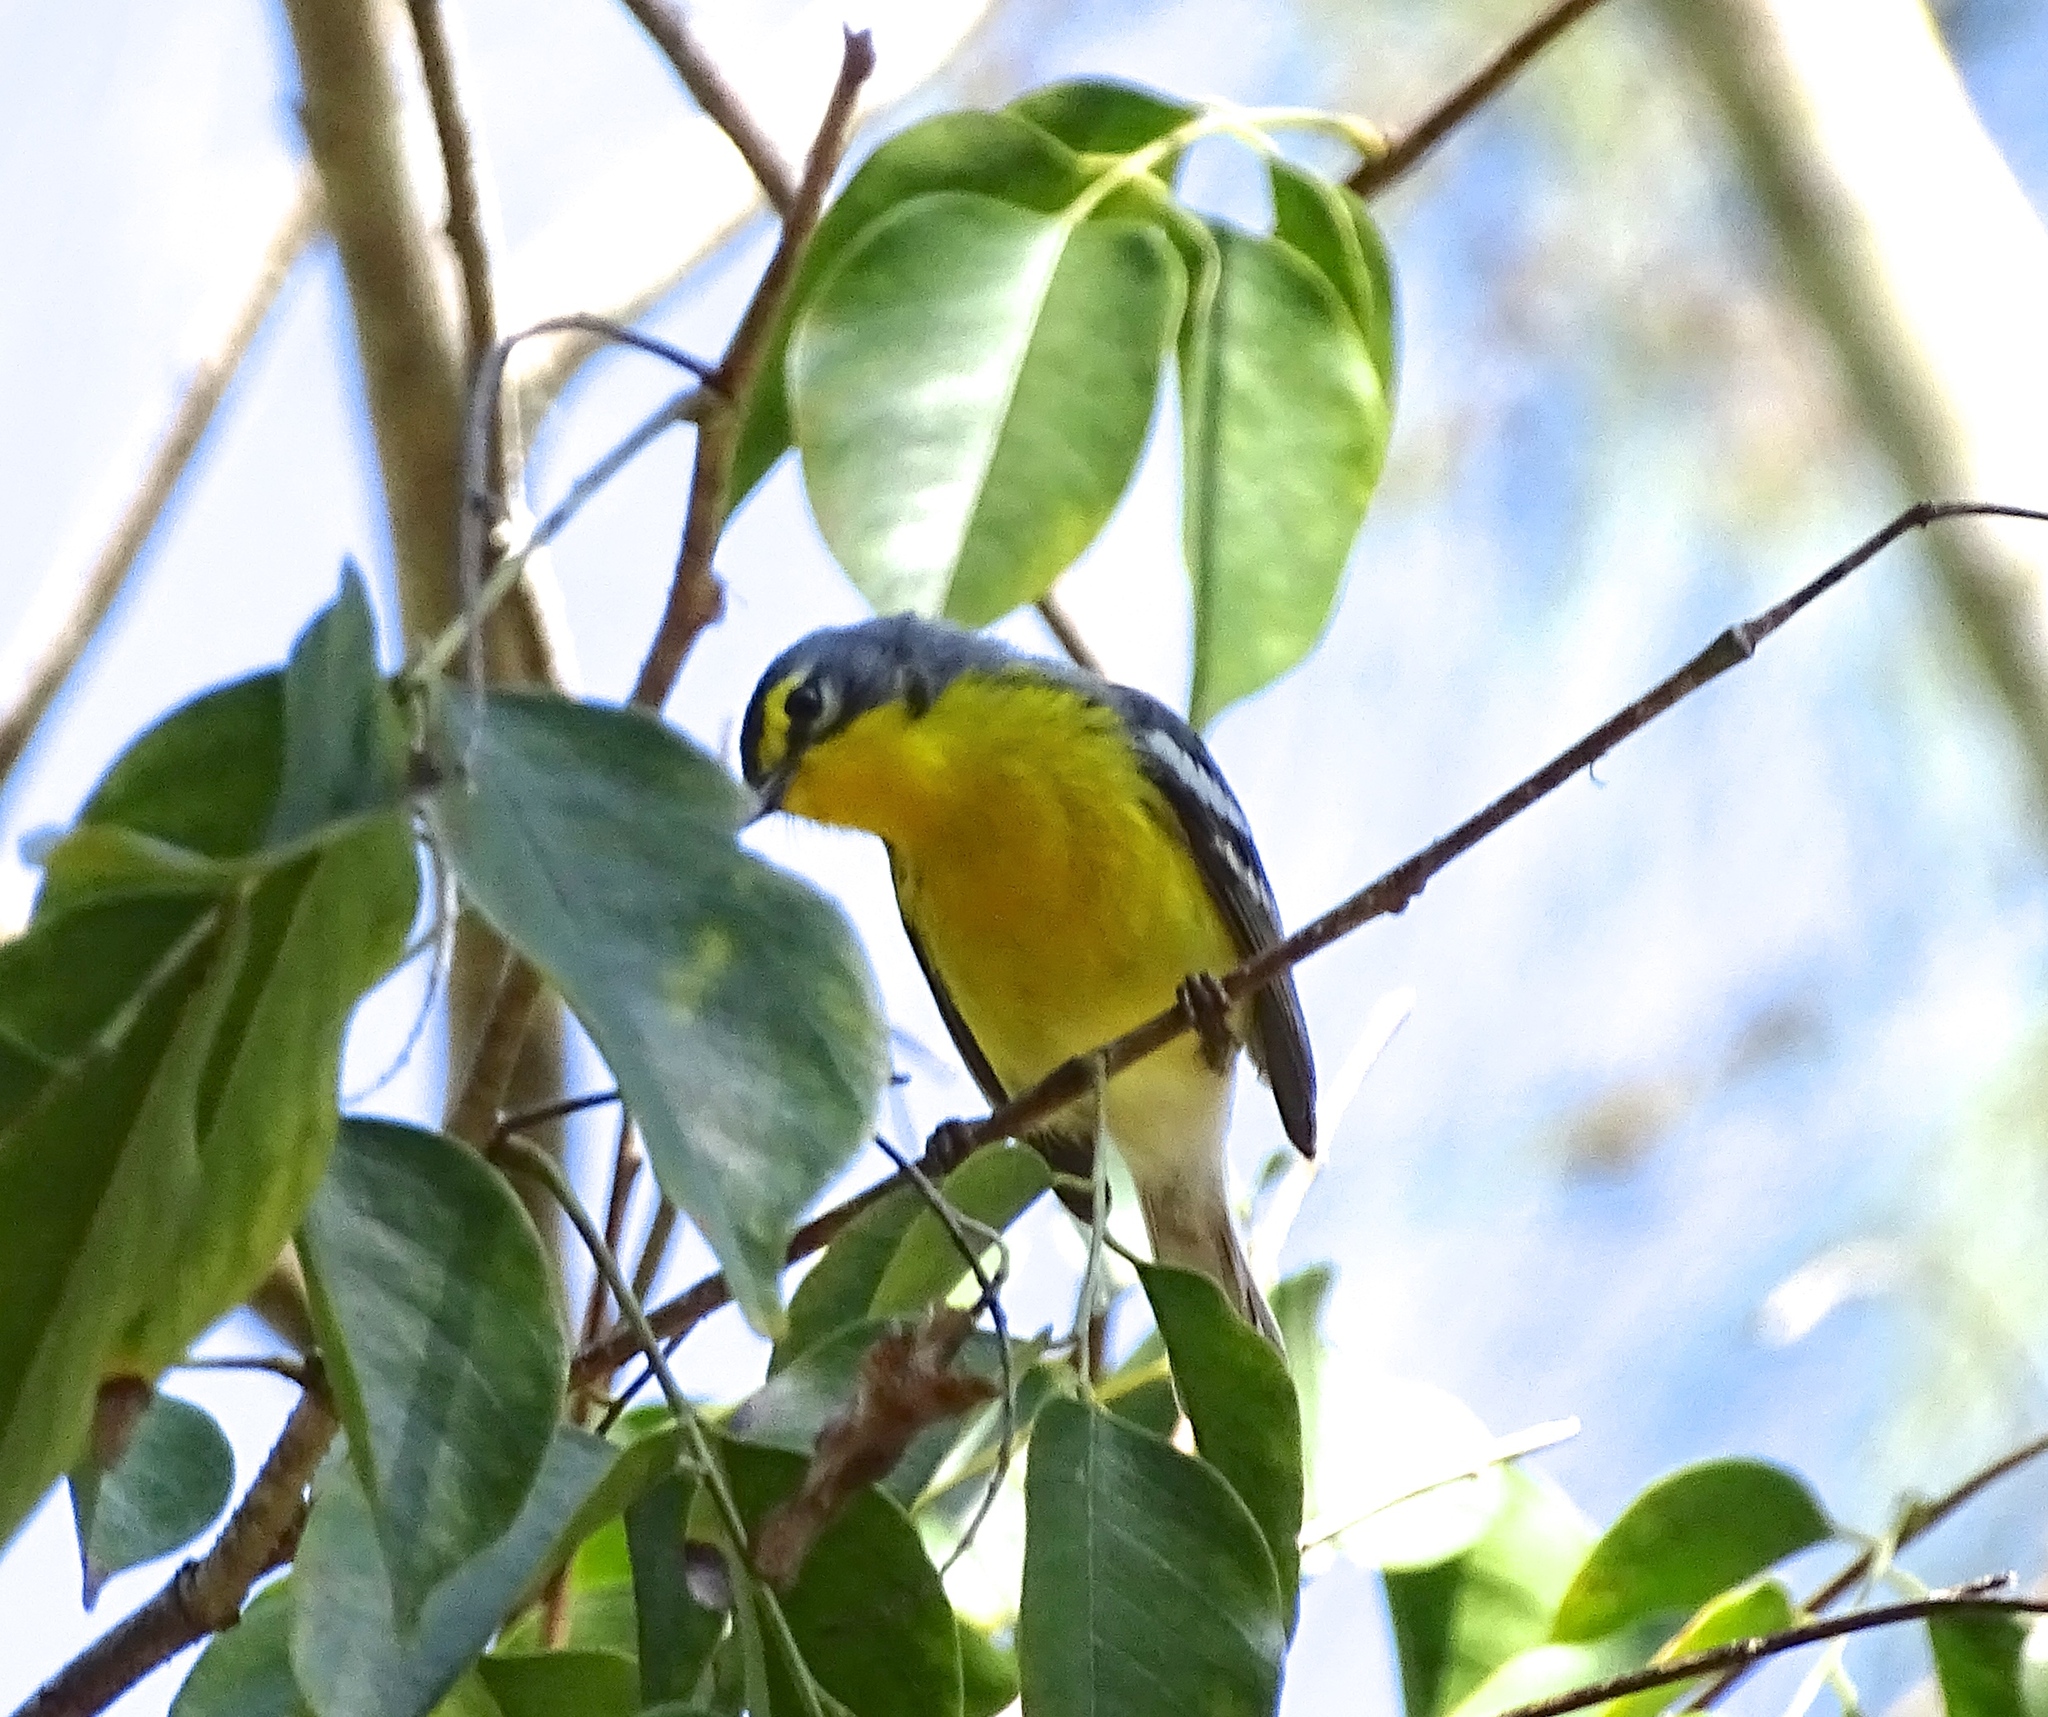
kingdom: Animalia
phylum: Chordata
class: Aves
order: Passeriformes
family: Parulidae
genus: Setophaga
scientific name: Setophaga adelaidae
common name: Adelaide's warbler
